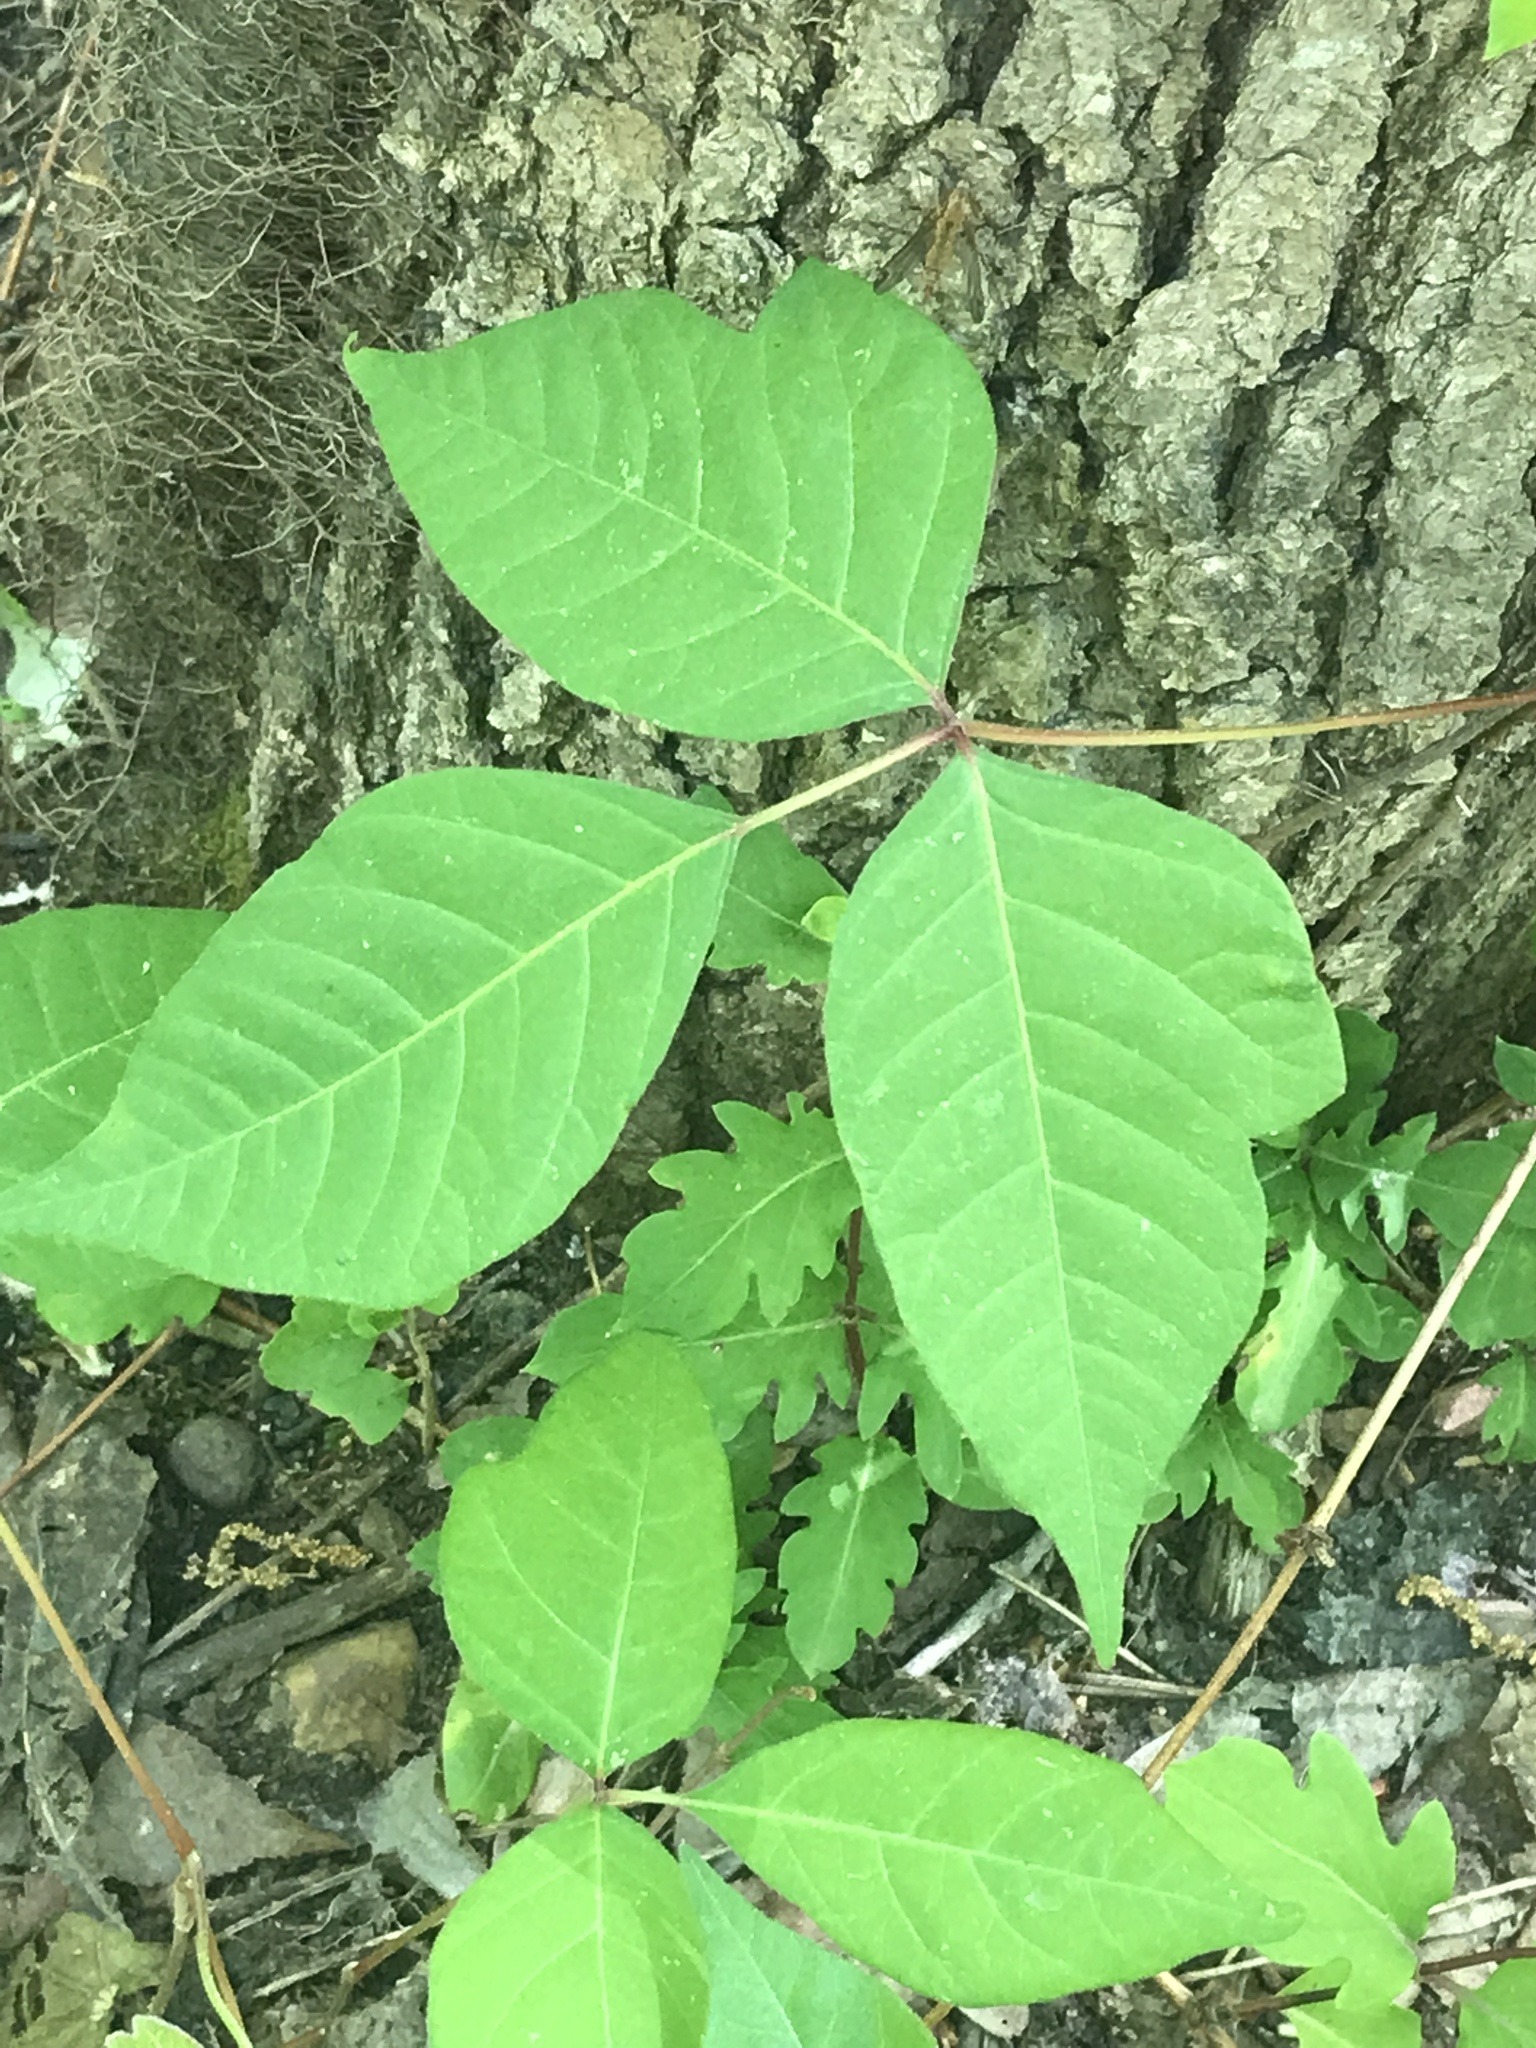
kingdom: Plantae
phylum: Tracheophyta
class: Magnoliopsida
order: Sapindales
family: Anacardiaceae
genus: Toxicodendron
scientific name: Toxicodendron radicans
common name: Poison ivy
